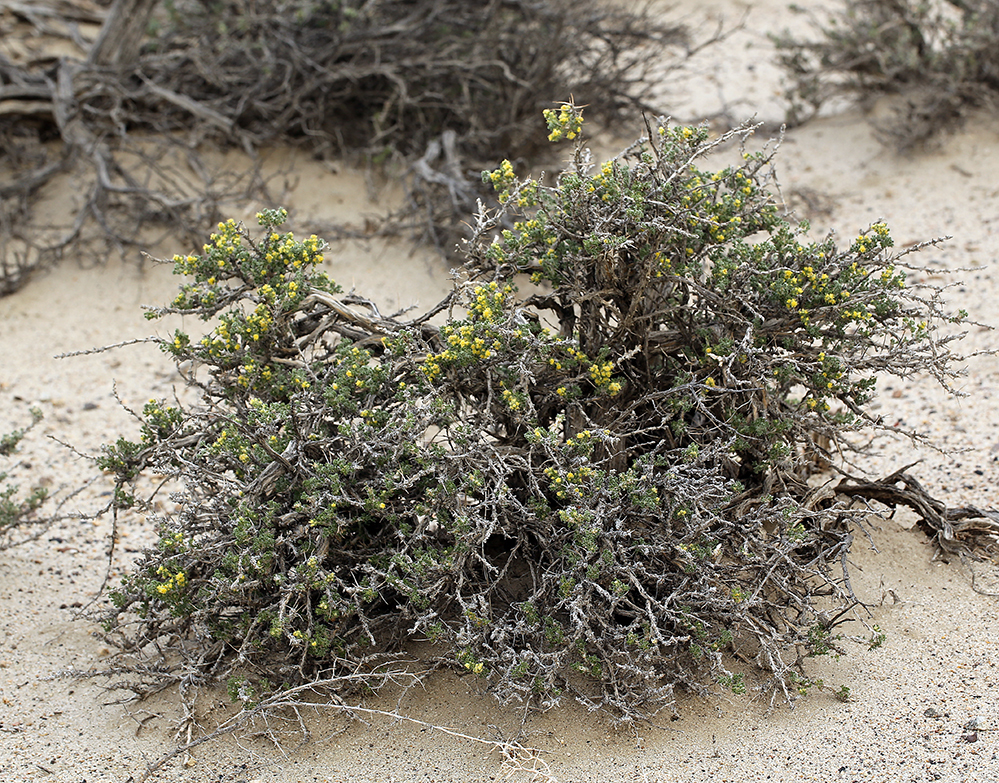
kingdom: Plantae
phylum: Tracheophyta
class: Magnoliopsida
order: Asterales
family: Asteraceae
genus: Artemisia
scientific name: Artemisia spinescens
